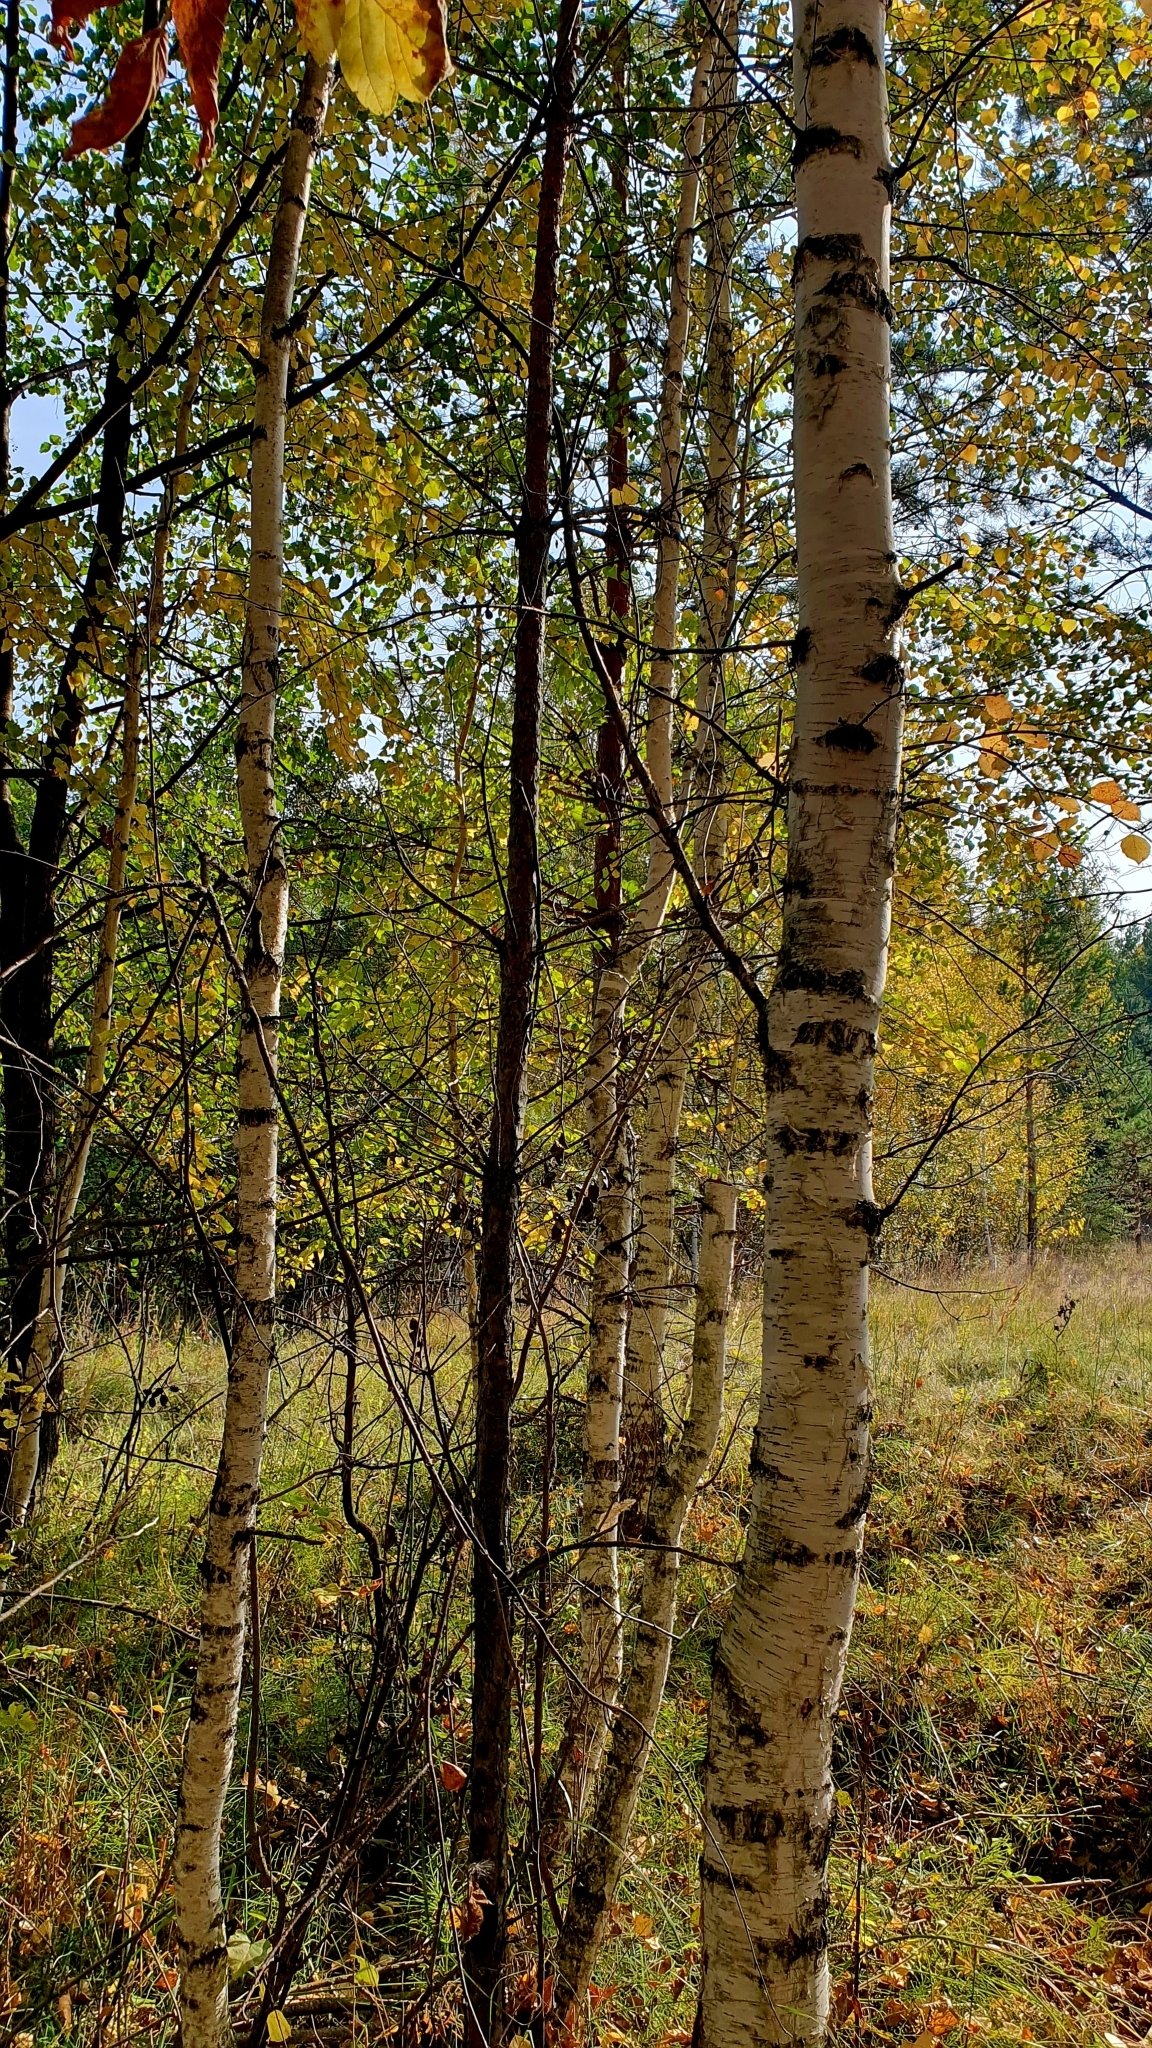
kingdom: Plantae
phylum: Tracheophyta
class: Magnoliopsida
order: Fagales
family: Betulaceae
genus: Betula
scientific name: Betula pendula
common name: Silver birch
